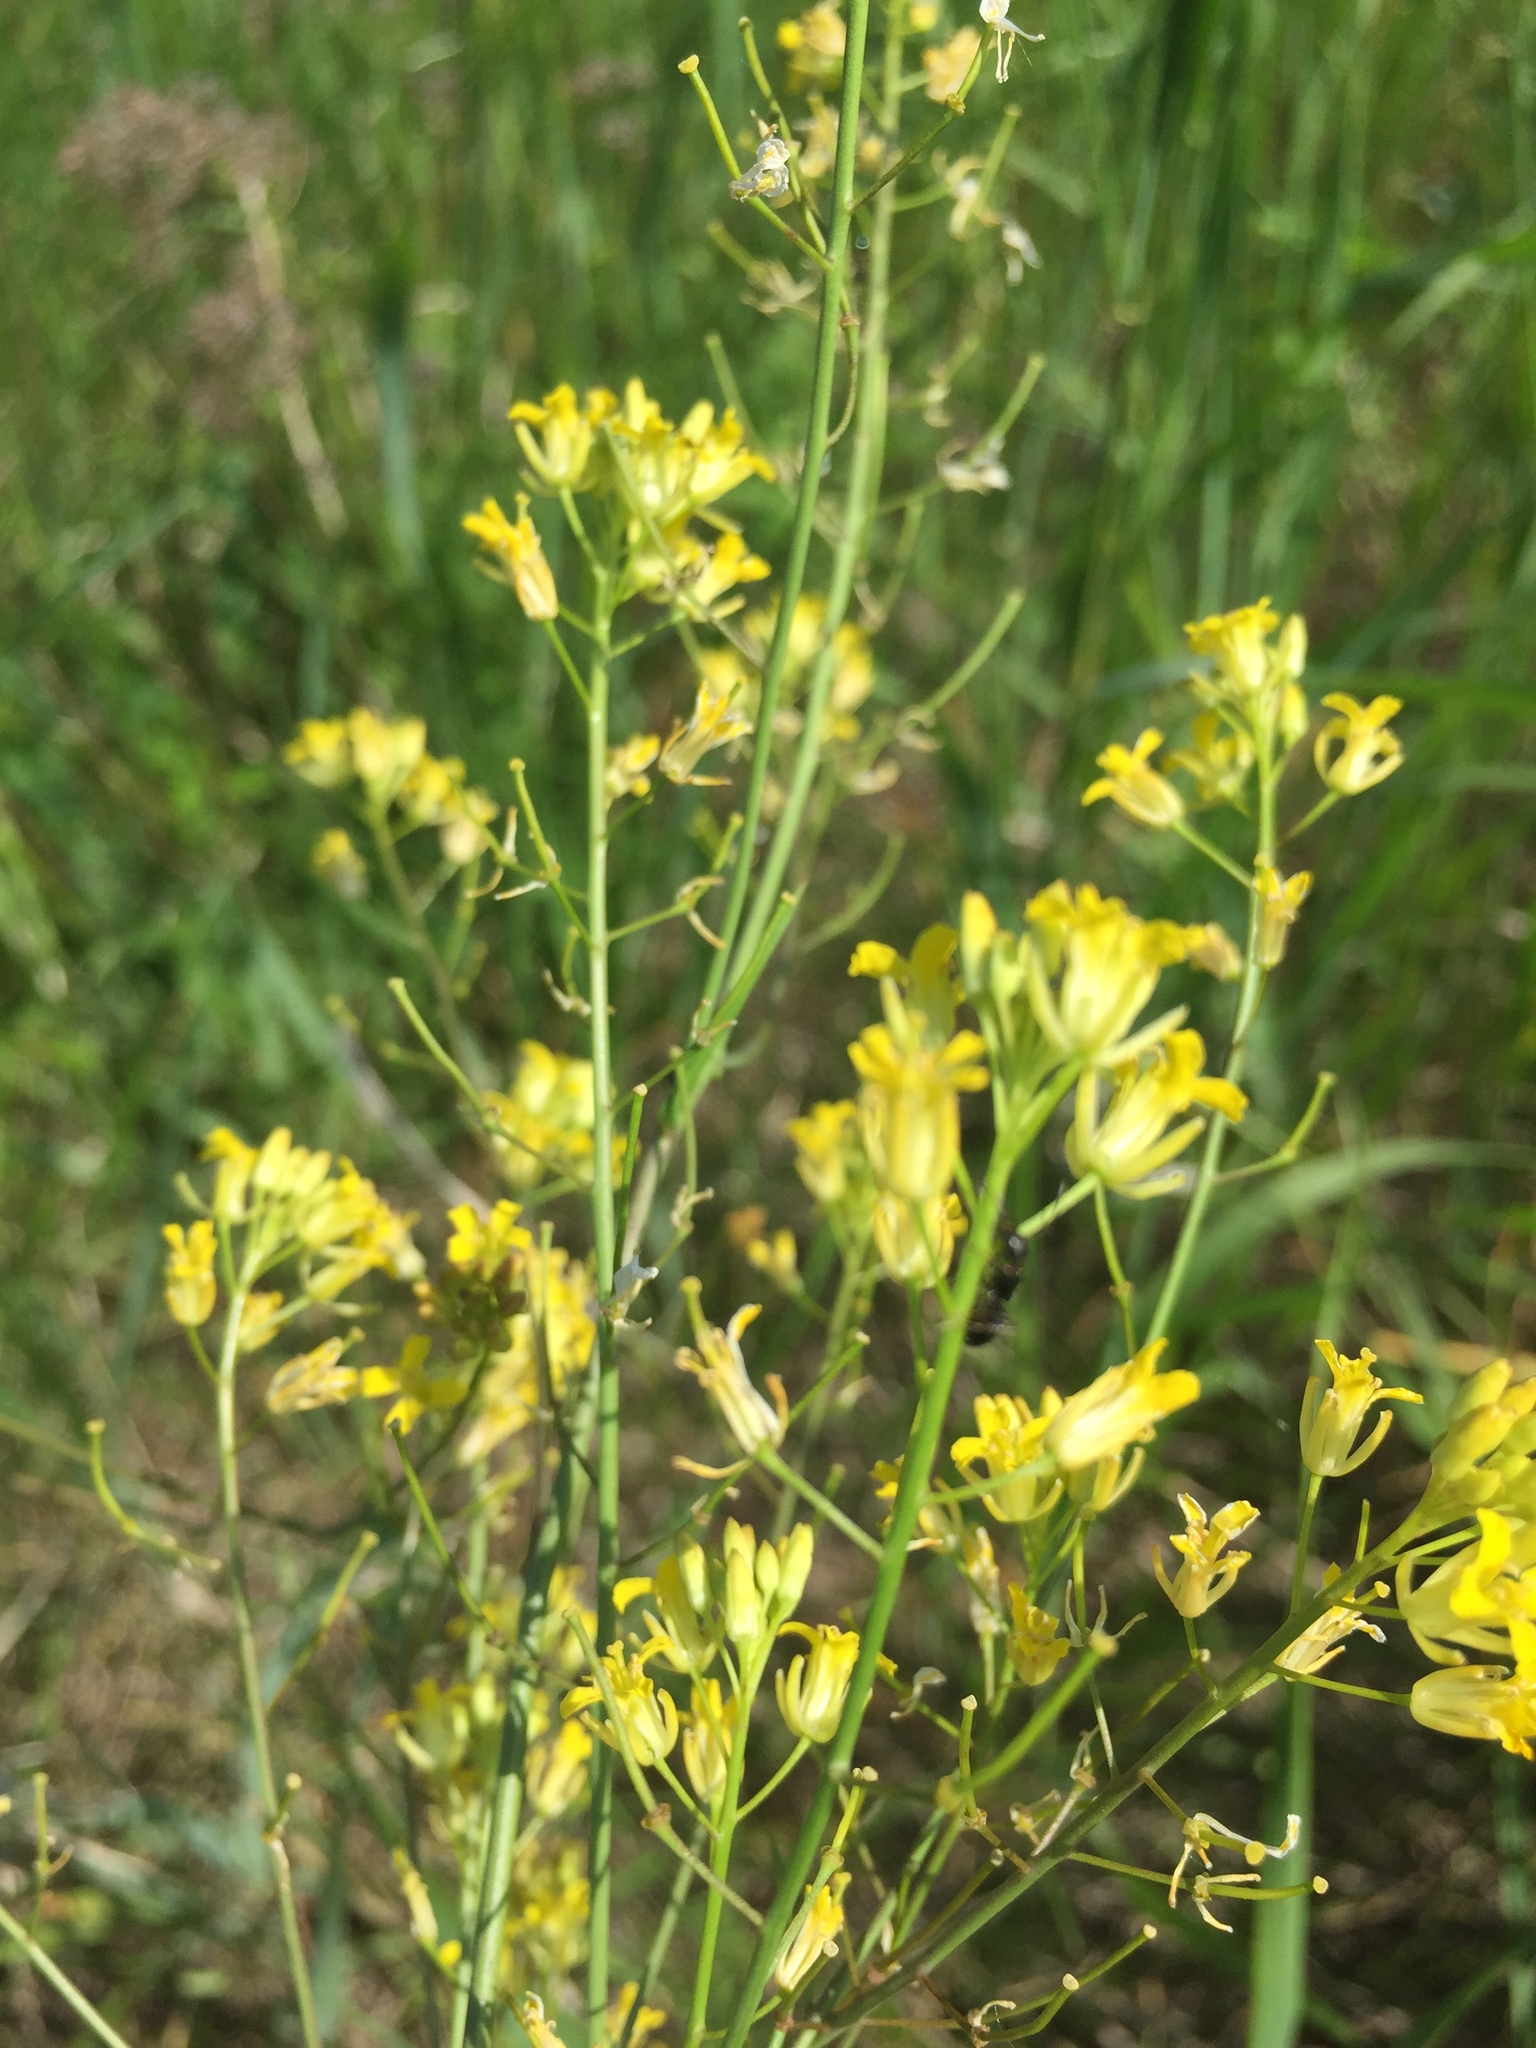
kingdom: Plantae
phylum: Tracheophyta
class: Magnoliopsida
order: Brassicales
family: Brassicaceae
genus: Sisymbrium
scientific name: Sisymbrium polymorphum
